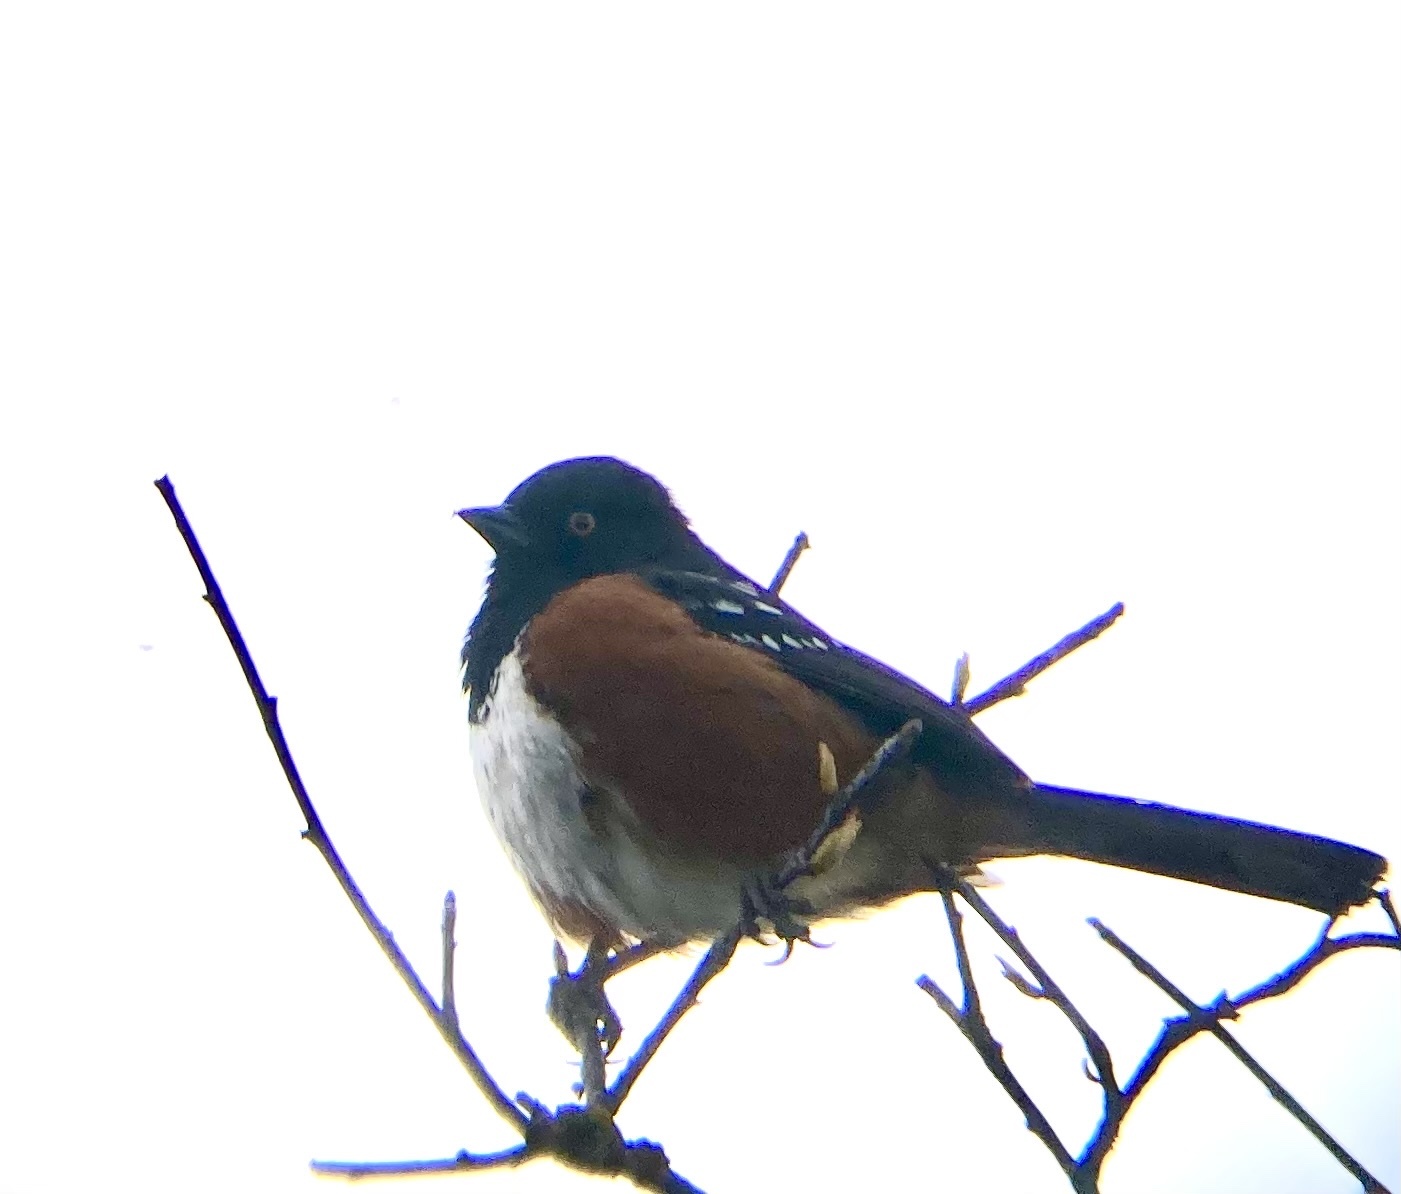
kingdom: Animalia
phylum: Chordata
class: Aves
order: Passeriformes
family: Passerellidae
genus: Pipilo
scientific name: Pipilo maculatus
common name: Spotted towhee
